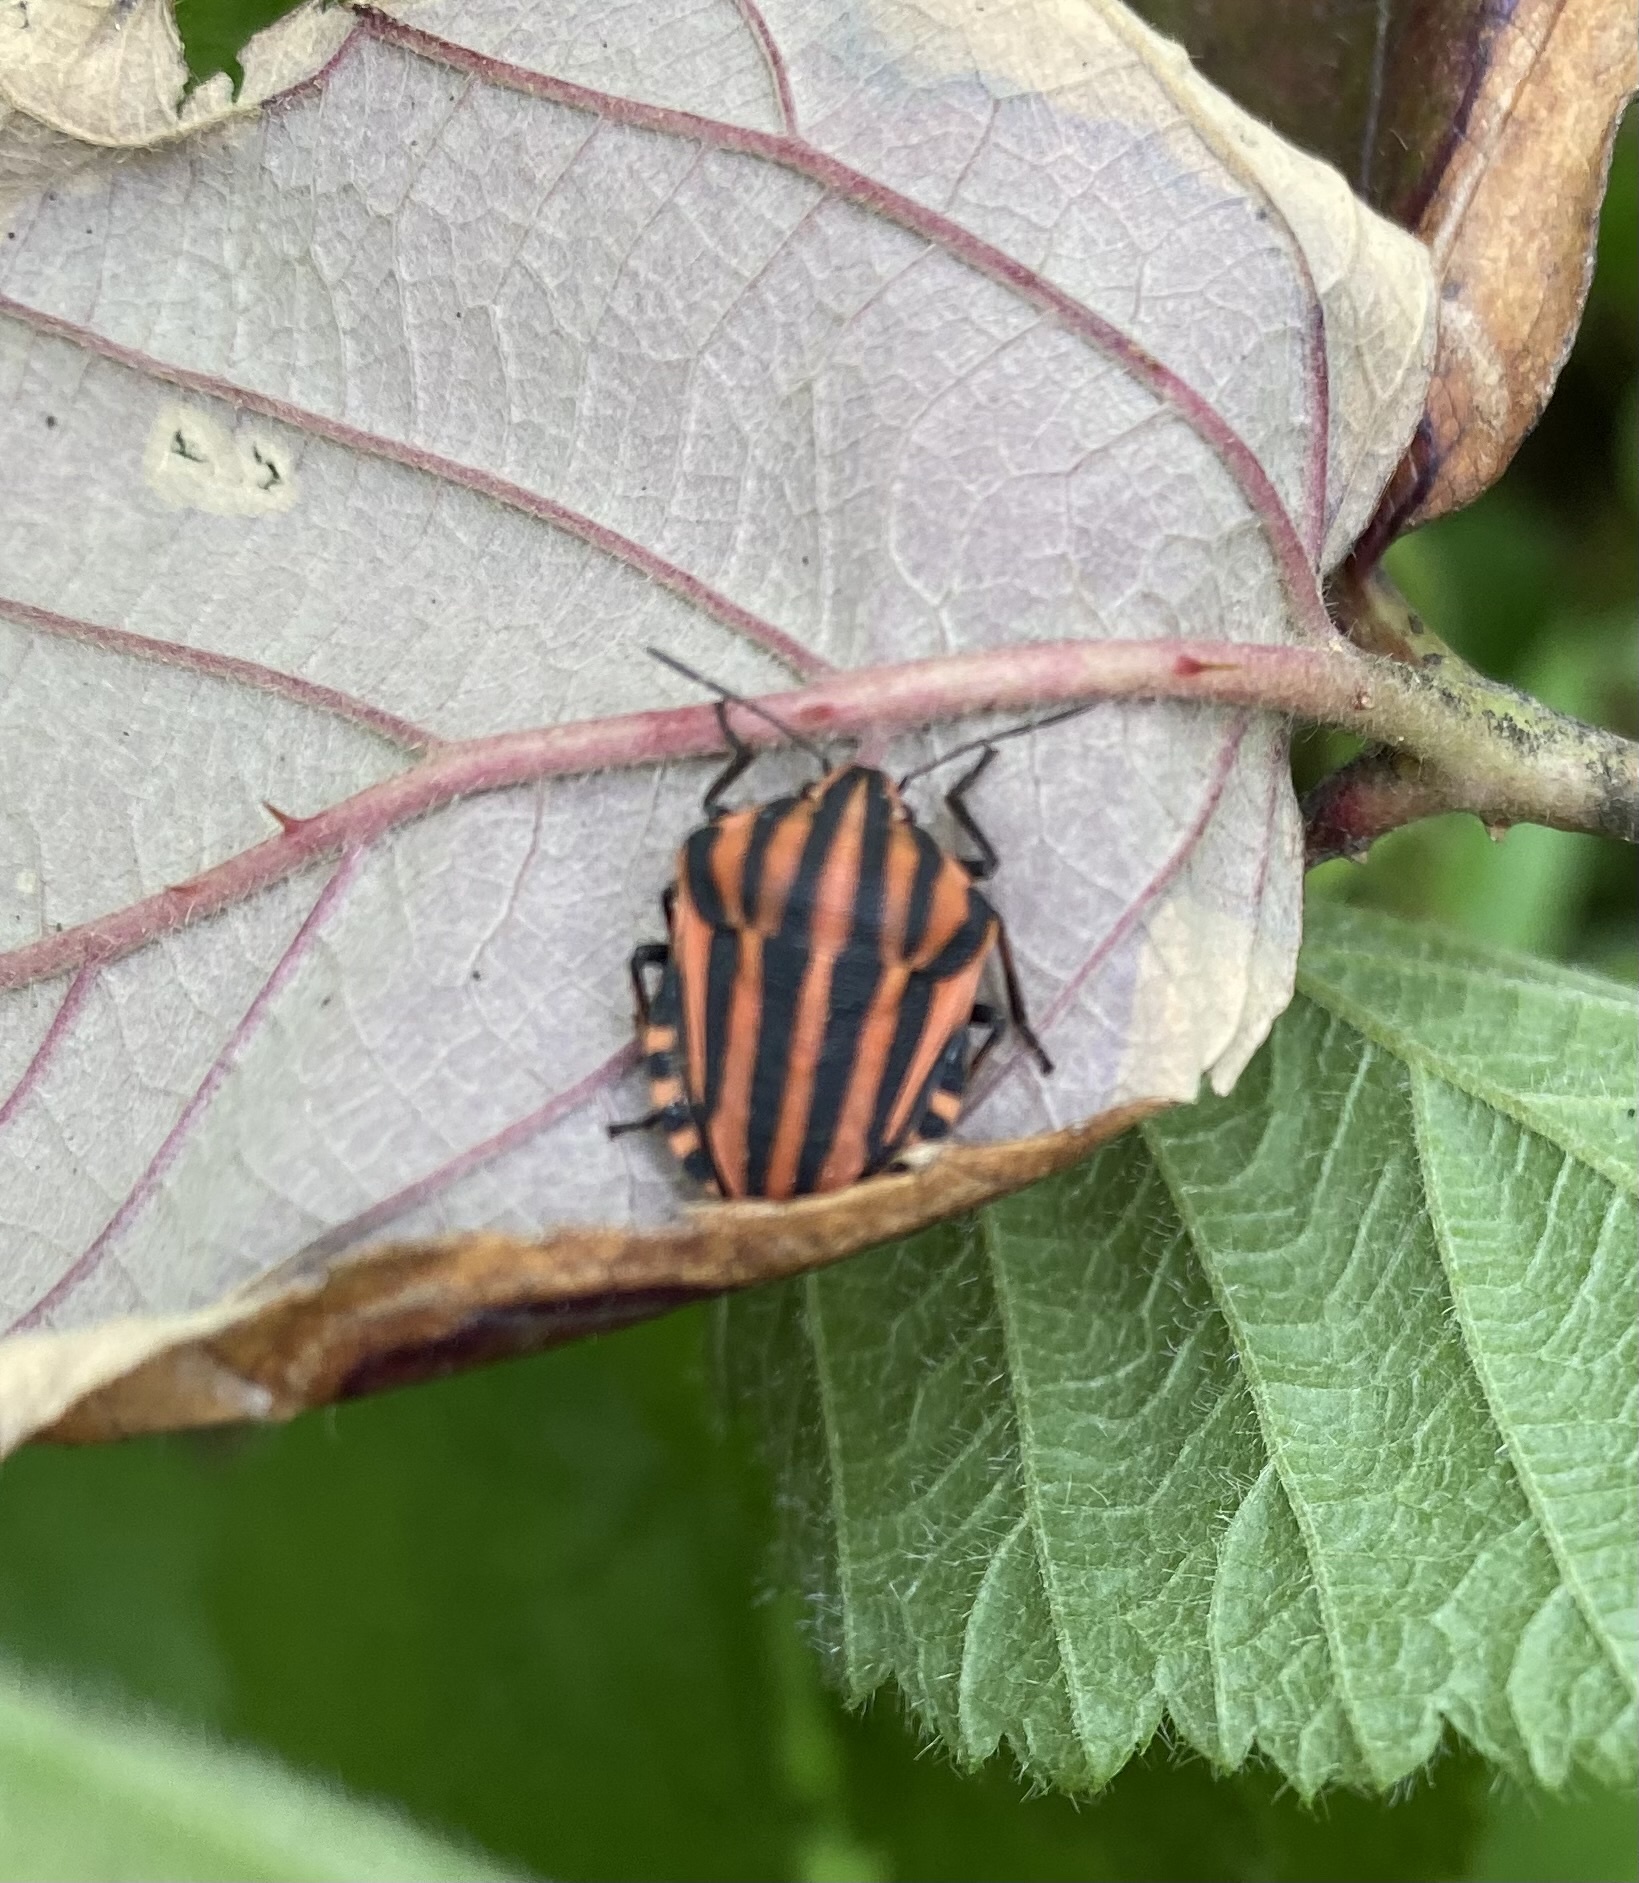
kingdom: Animalia
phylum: Arthropoda
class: Insecta
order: Hemiptera
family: Pentatomidae
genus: Graphosoma
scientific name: Graphosoma italicum
